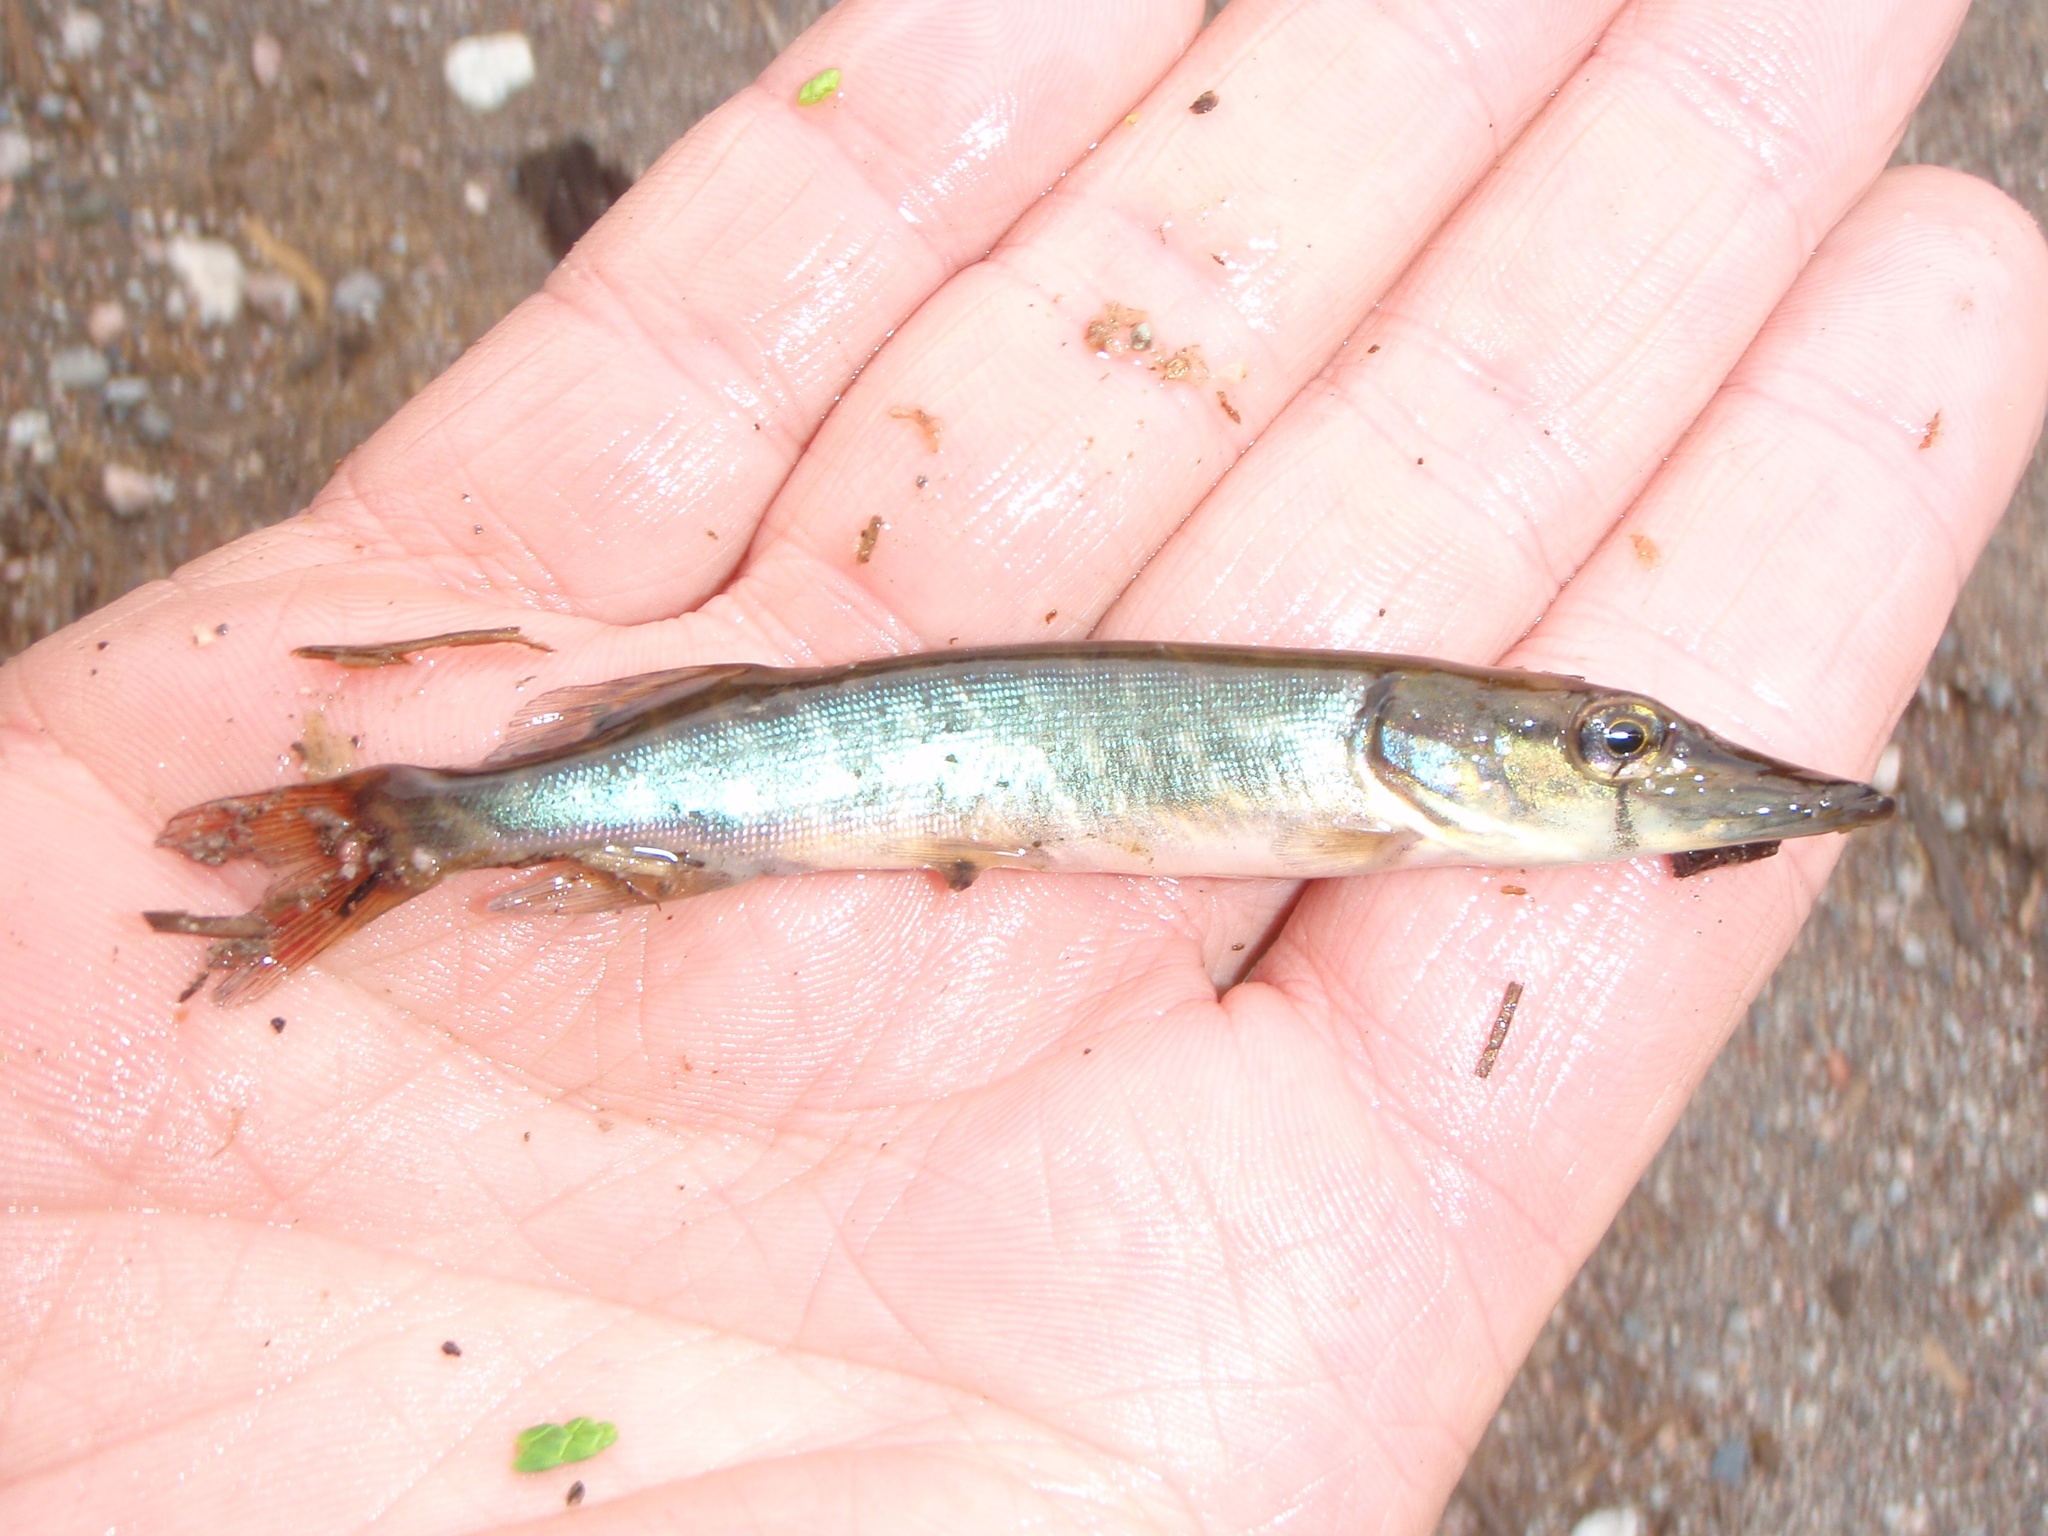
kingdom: Animalia
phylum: Chordata
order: Esociformes
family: Esocidae
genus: Esox
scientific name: Esox lucius
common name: Northern pike
